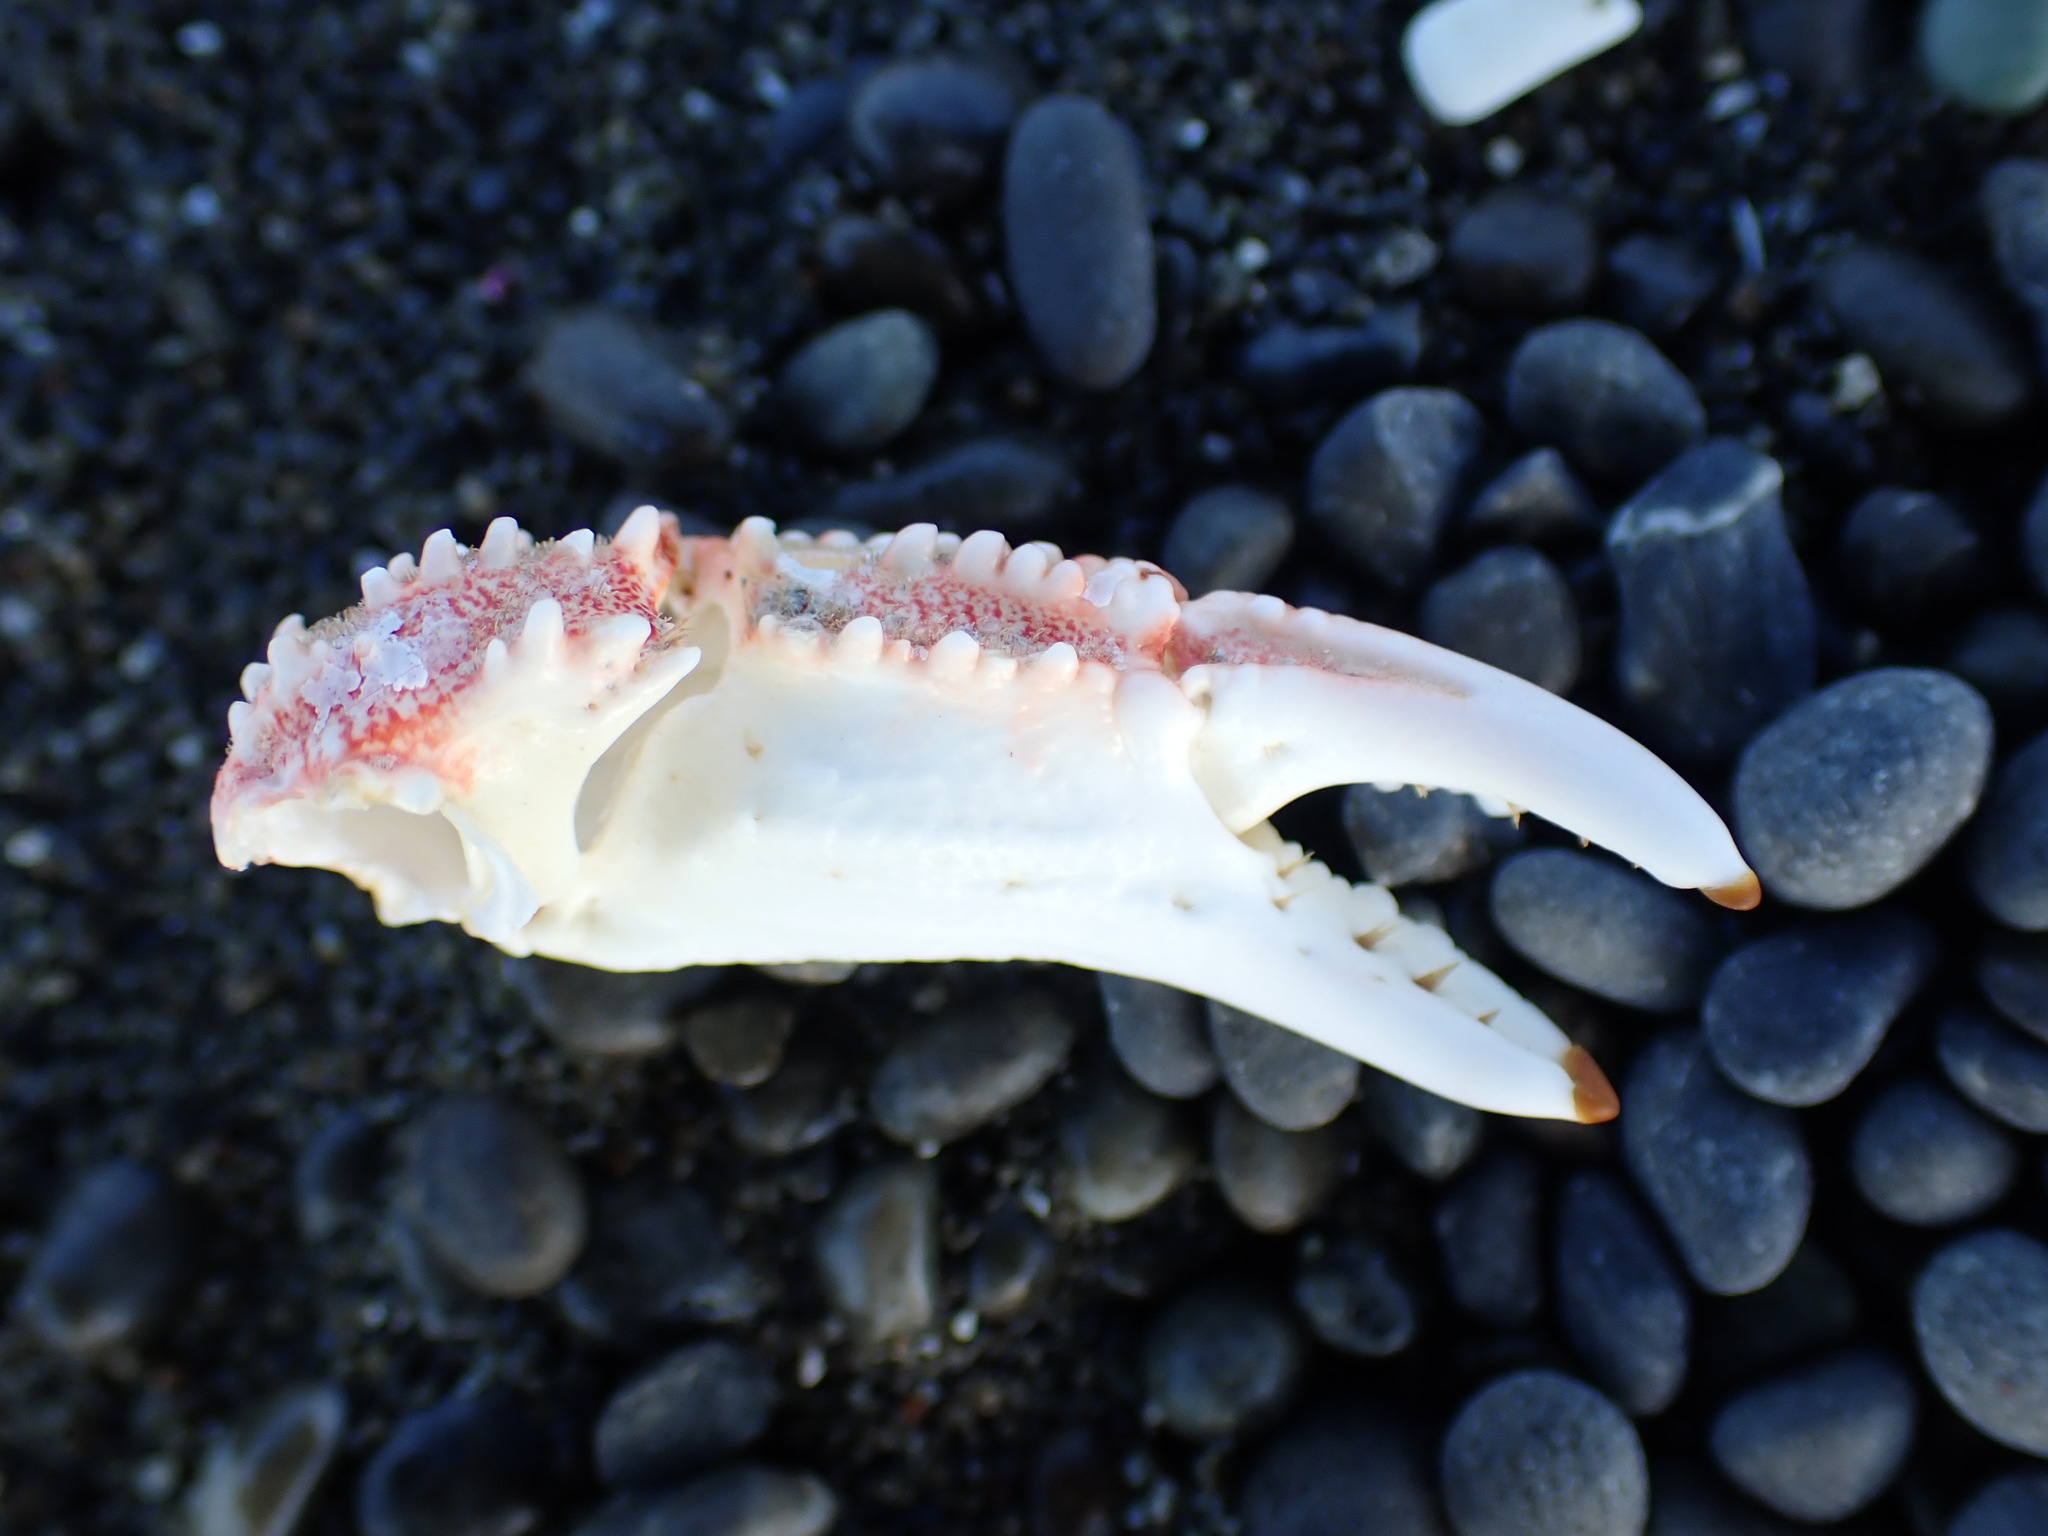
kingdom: Animalia
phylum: Arthropoda
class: Malacostraca
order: Decapoda
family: Plagusiidae
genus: Guinusia
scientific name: Guinusia chabrus
